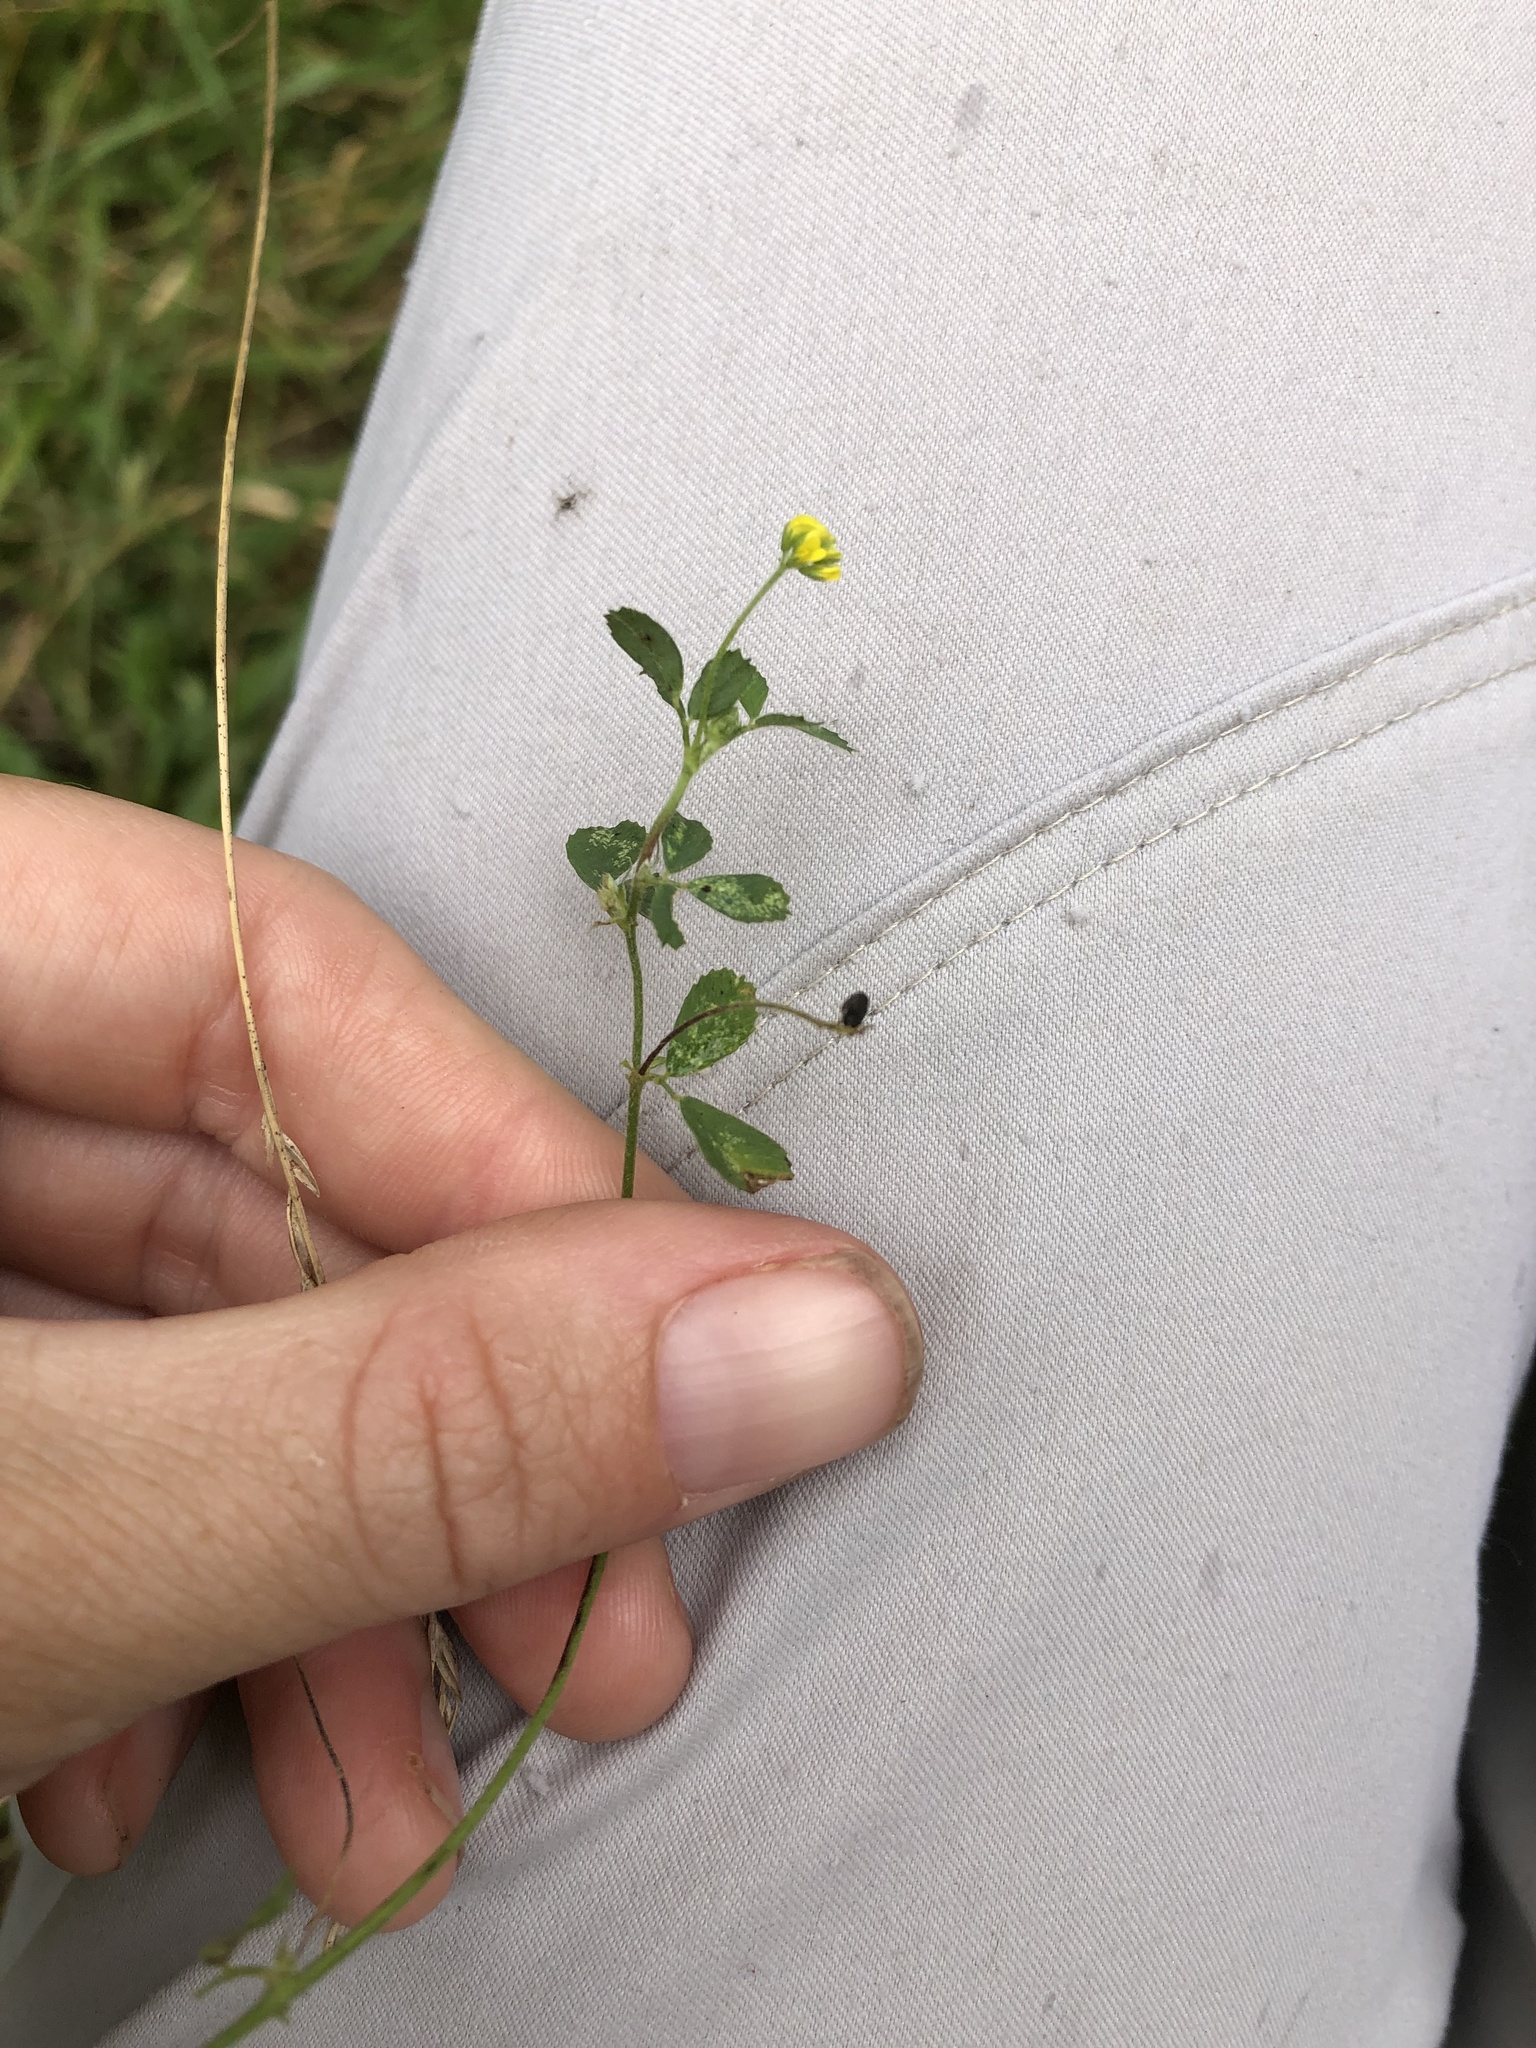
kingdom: Plantae
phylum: Tracheophyta
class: Magnoliopsida
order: Fabales
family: Fabaceae
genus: Medicago
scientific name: Medicago lupulina
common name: Black medick
